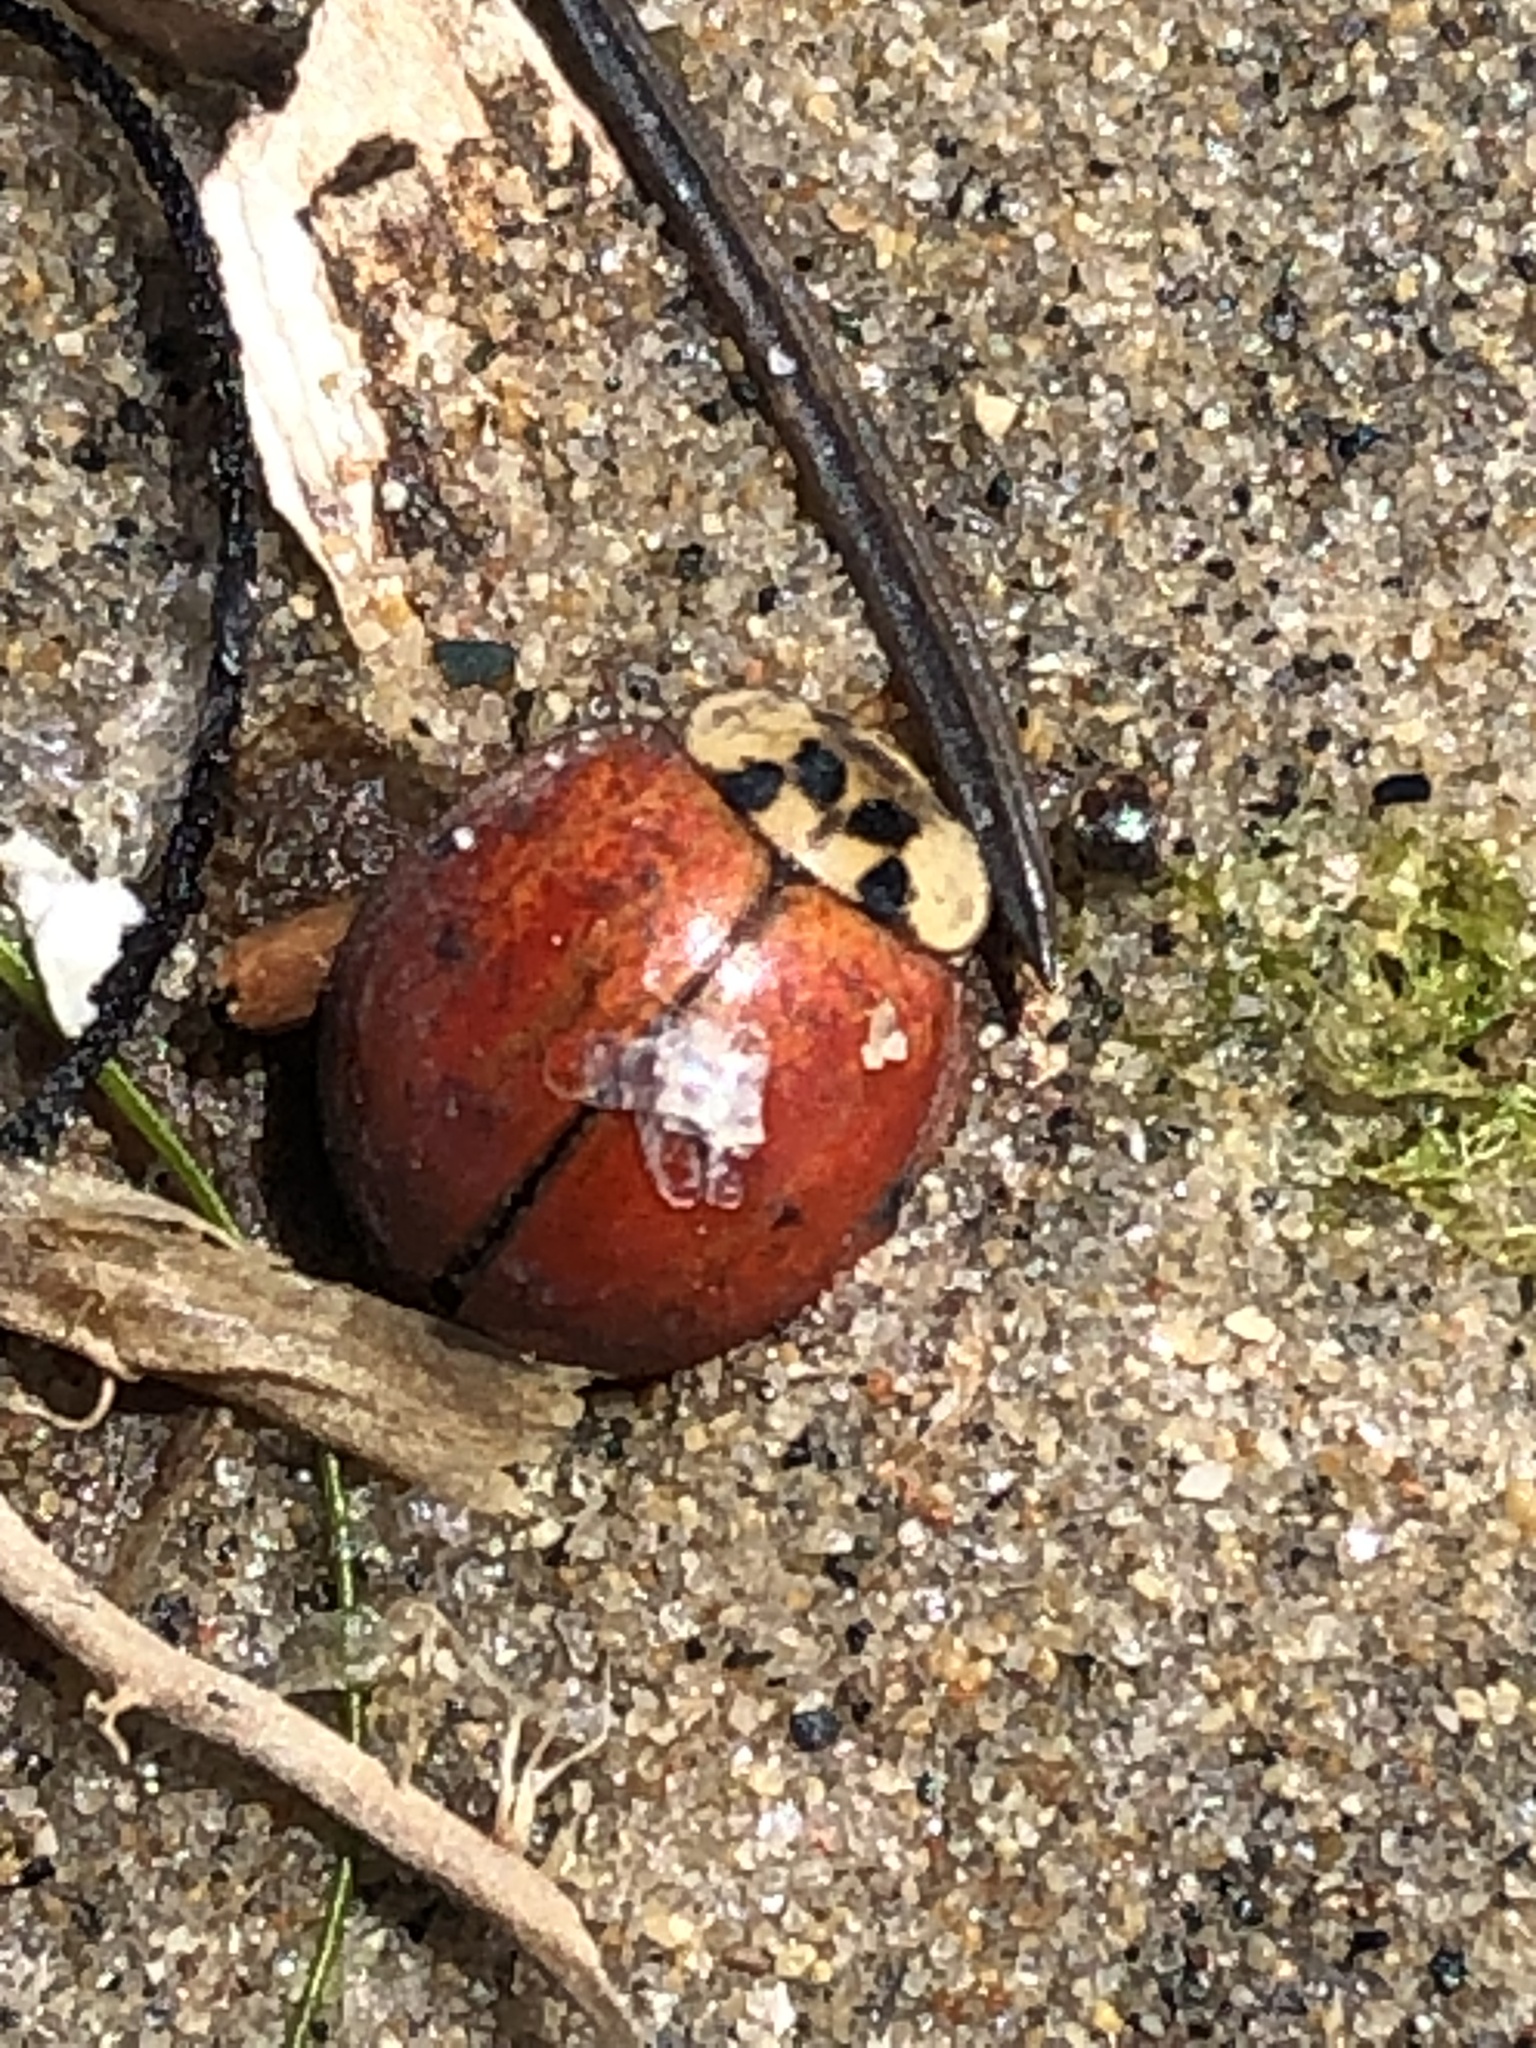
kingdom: Animalia
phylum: Arthropoda
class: Insecta
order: Coleoptera
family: Coccinellidae
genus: Harmonia
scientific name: Harmonia axyridis
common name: Harlequin ladybird
